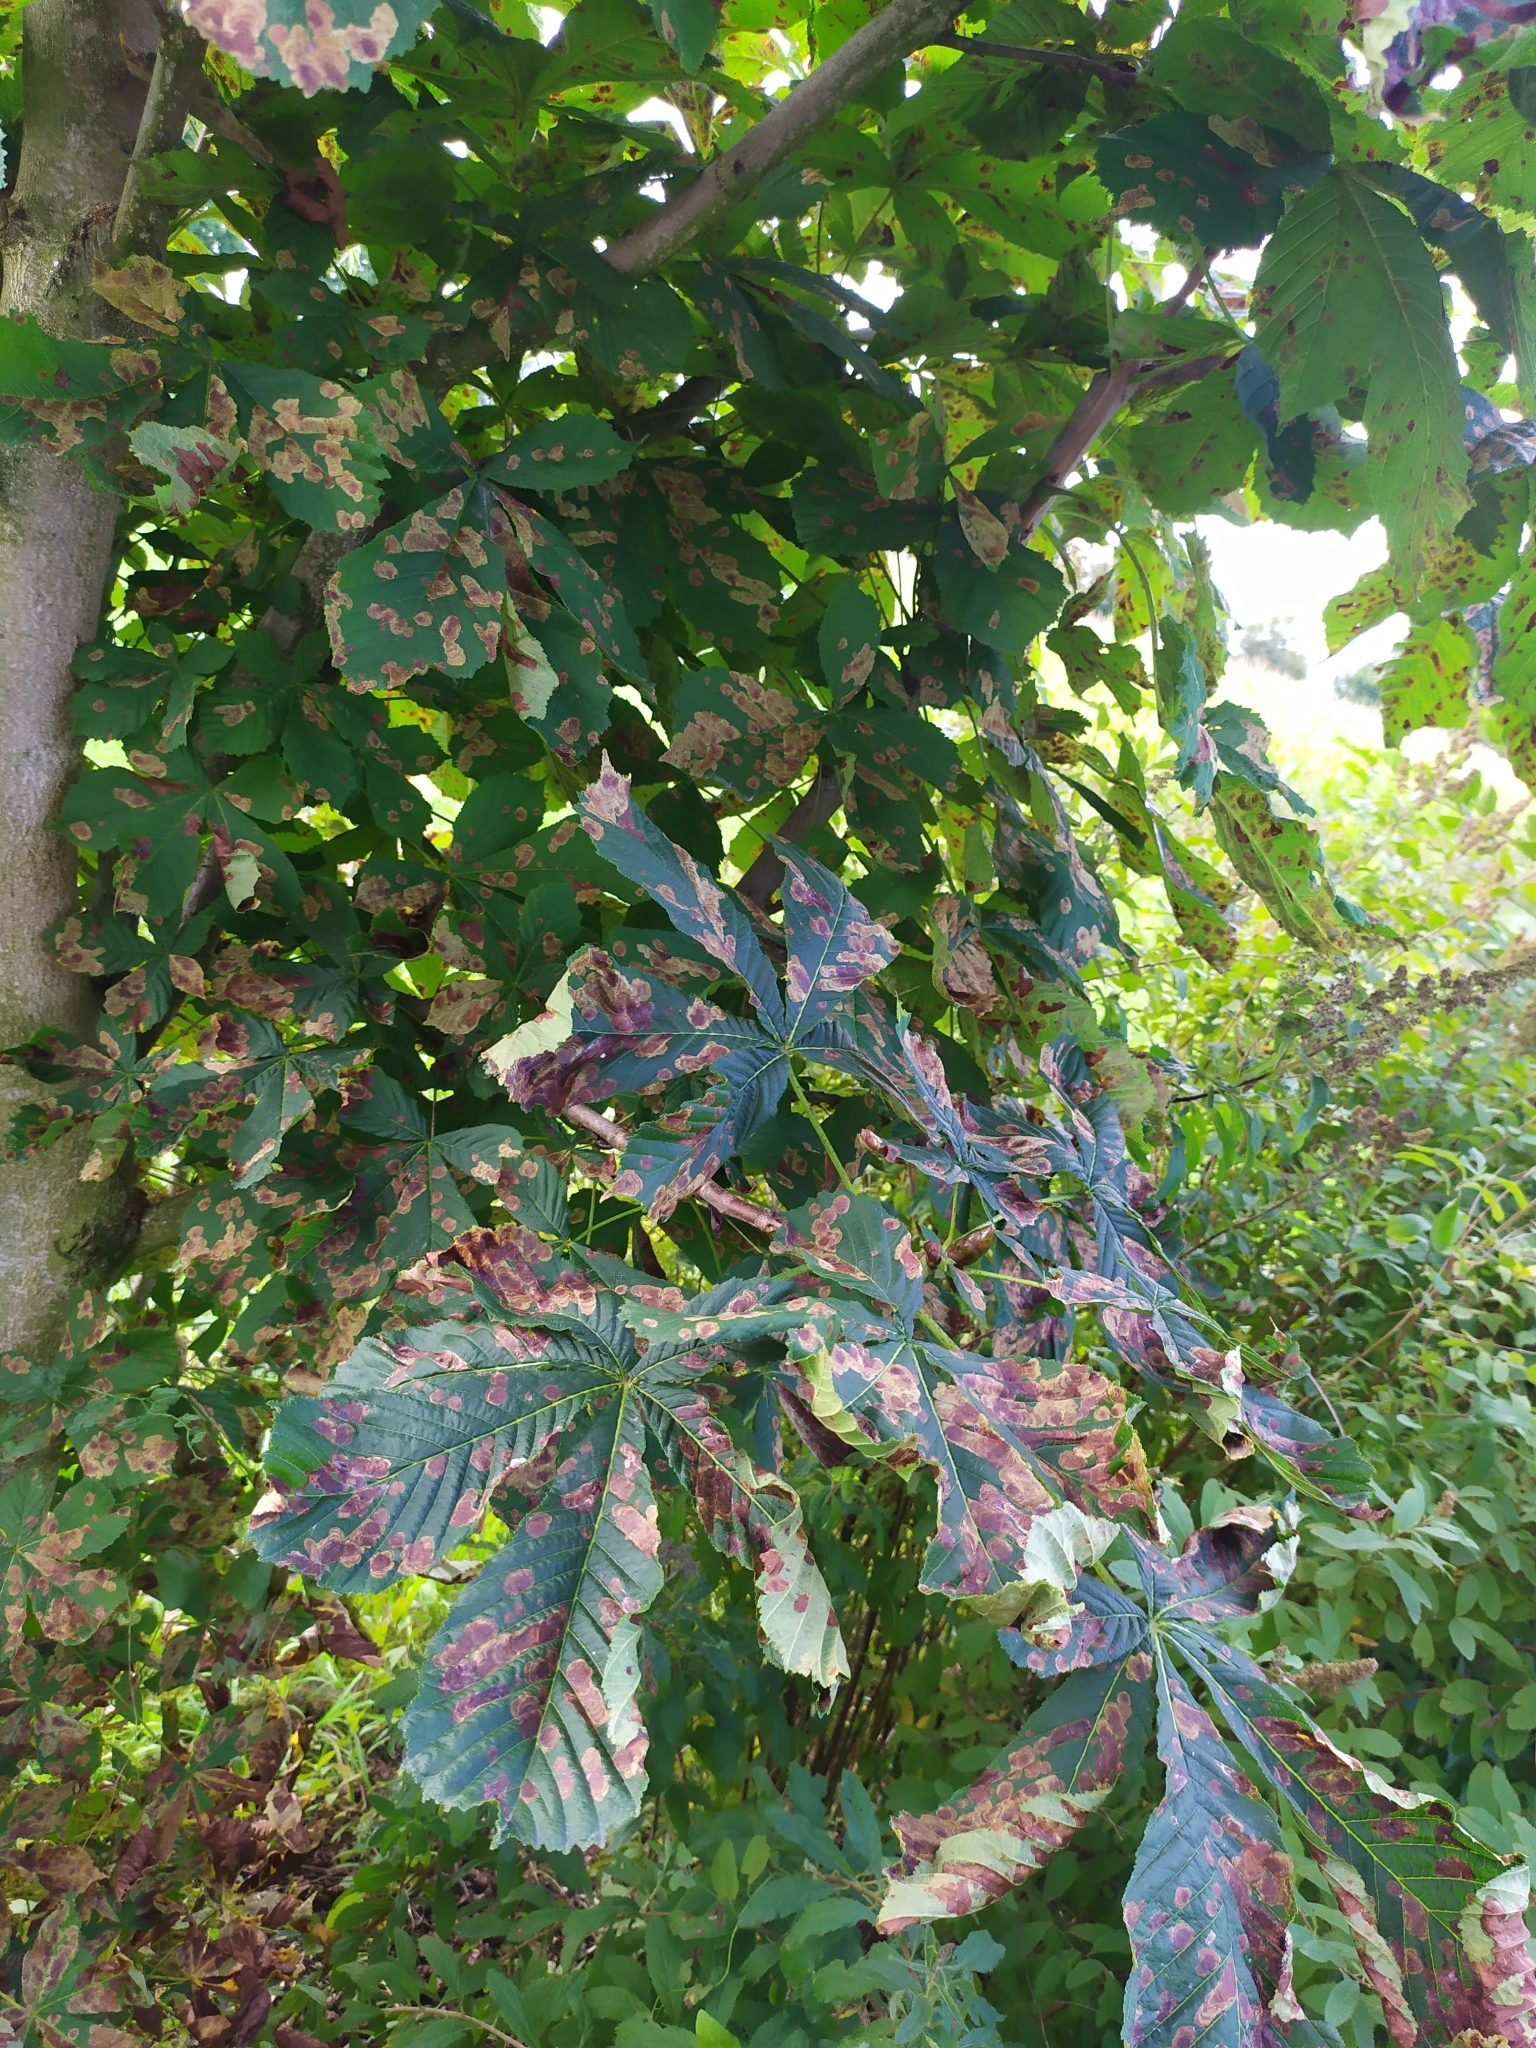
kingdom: Animalia
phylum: Arthropoda
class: Insecta
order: Lepidoptera
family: Gracillariidae
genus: Cameraria
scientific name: Cameraria ohridella
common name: Horse-chestnut leaf-miner
